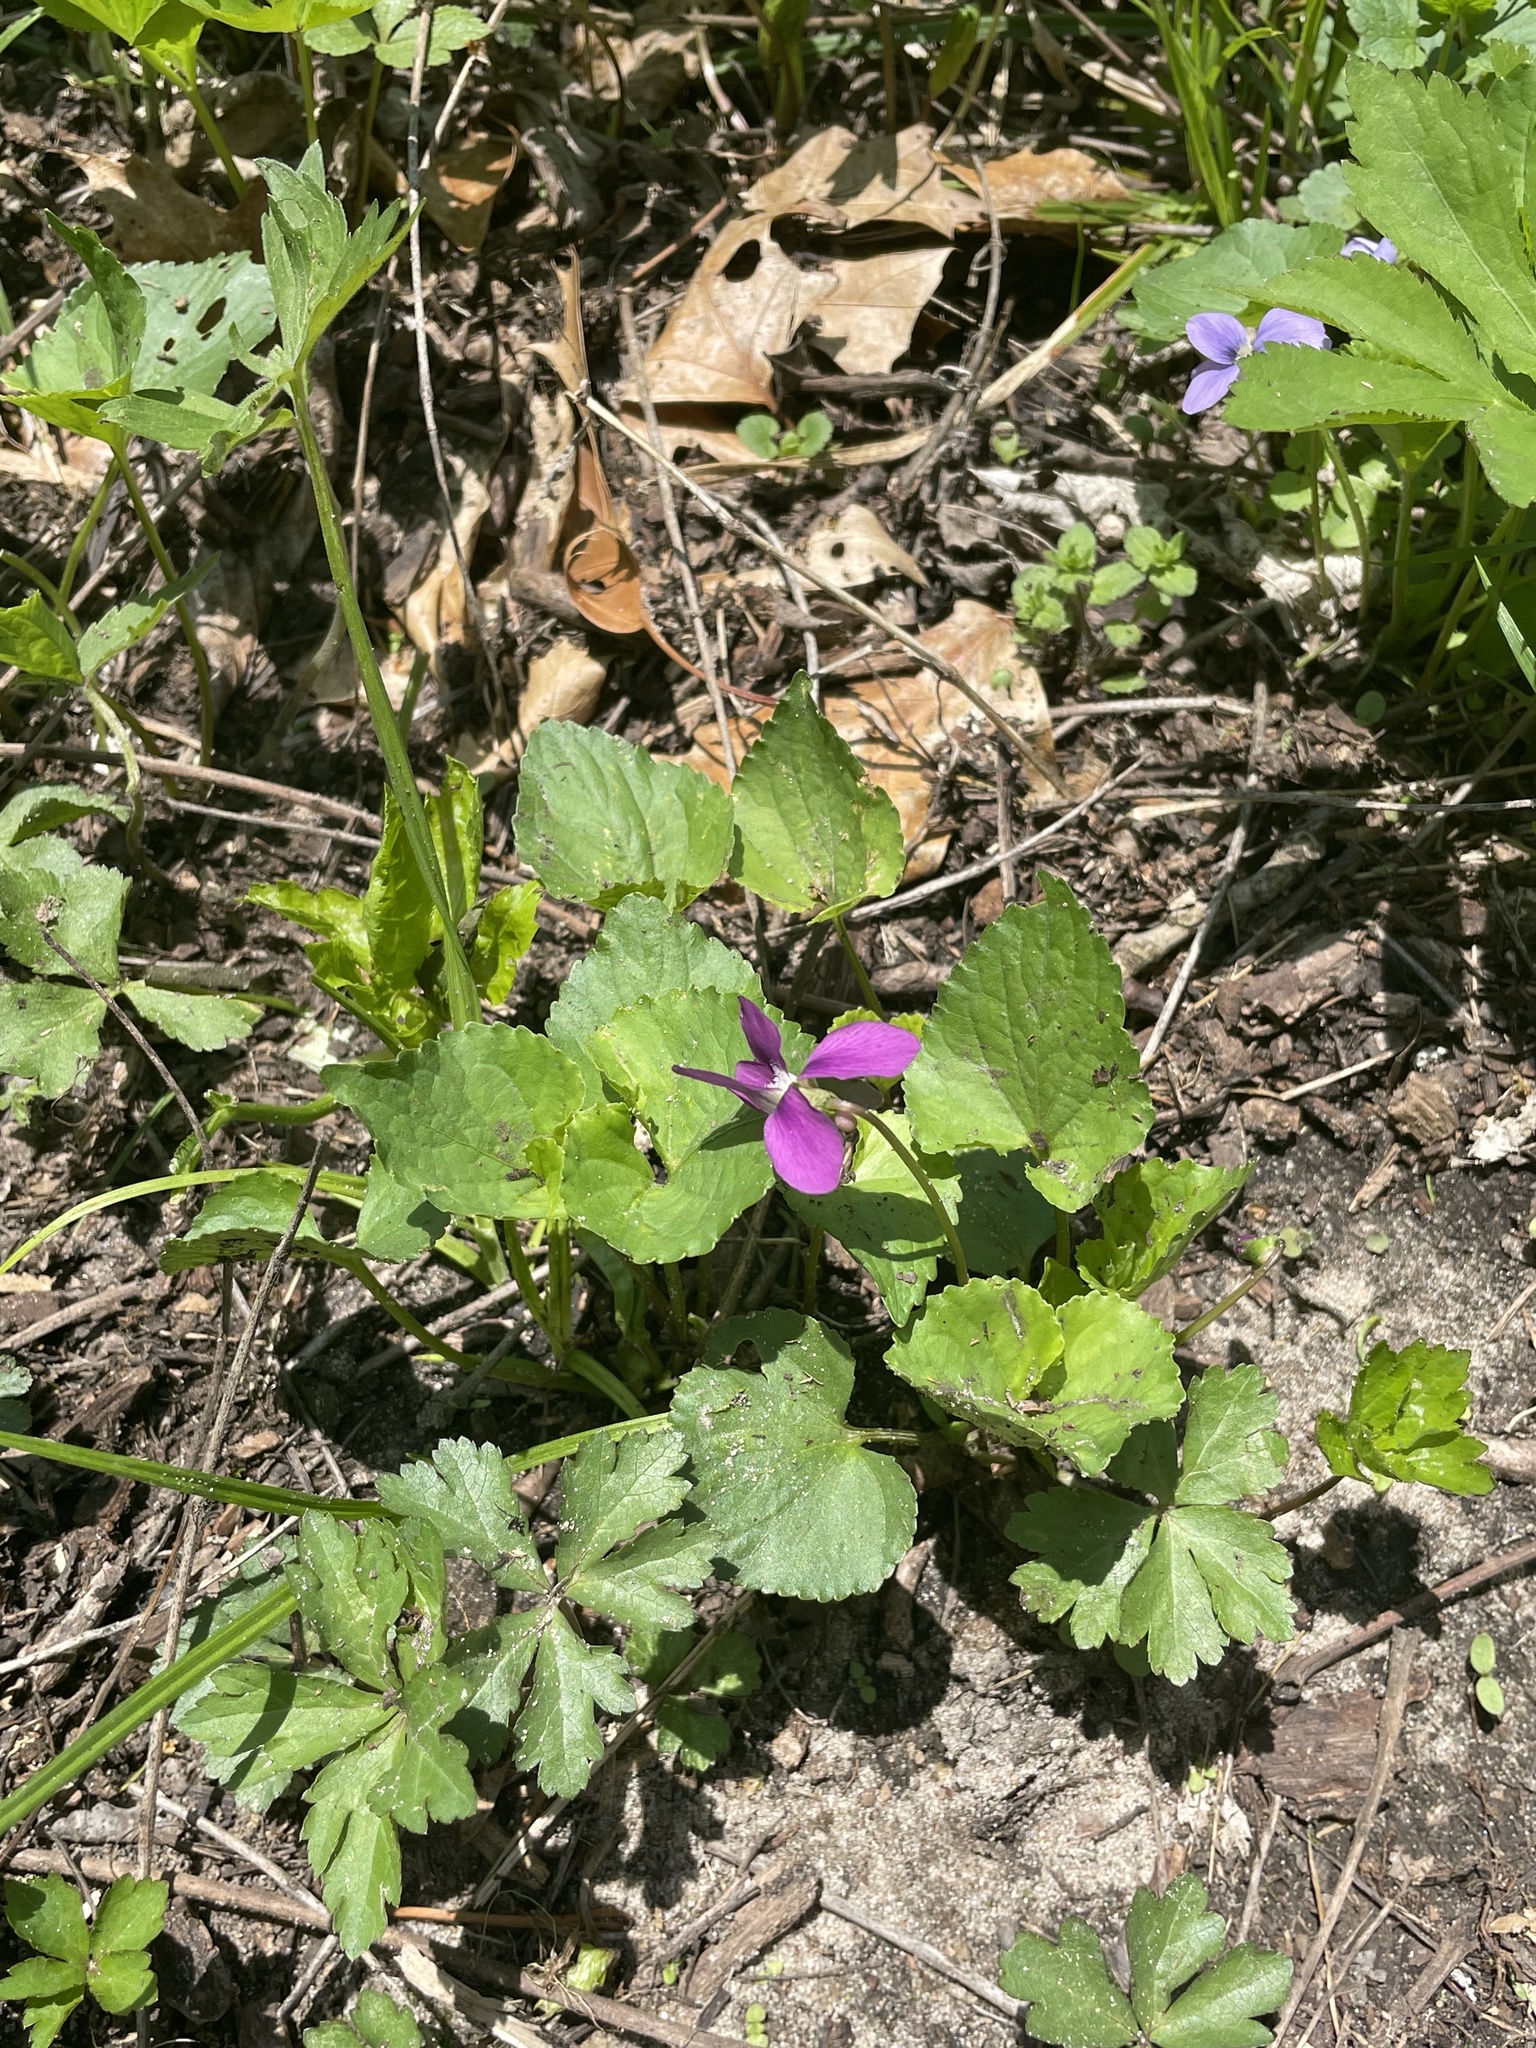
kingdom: Plantae
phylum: Tracheophyta
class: Magnoliopsida
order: Malpighiales
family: Violaceae
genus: Viola
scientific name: Viola odorata
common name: Sweet violet
